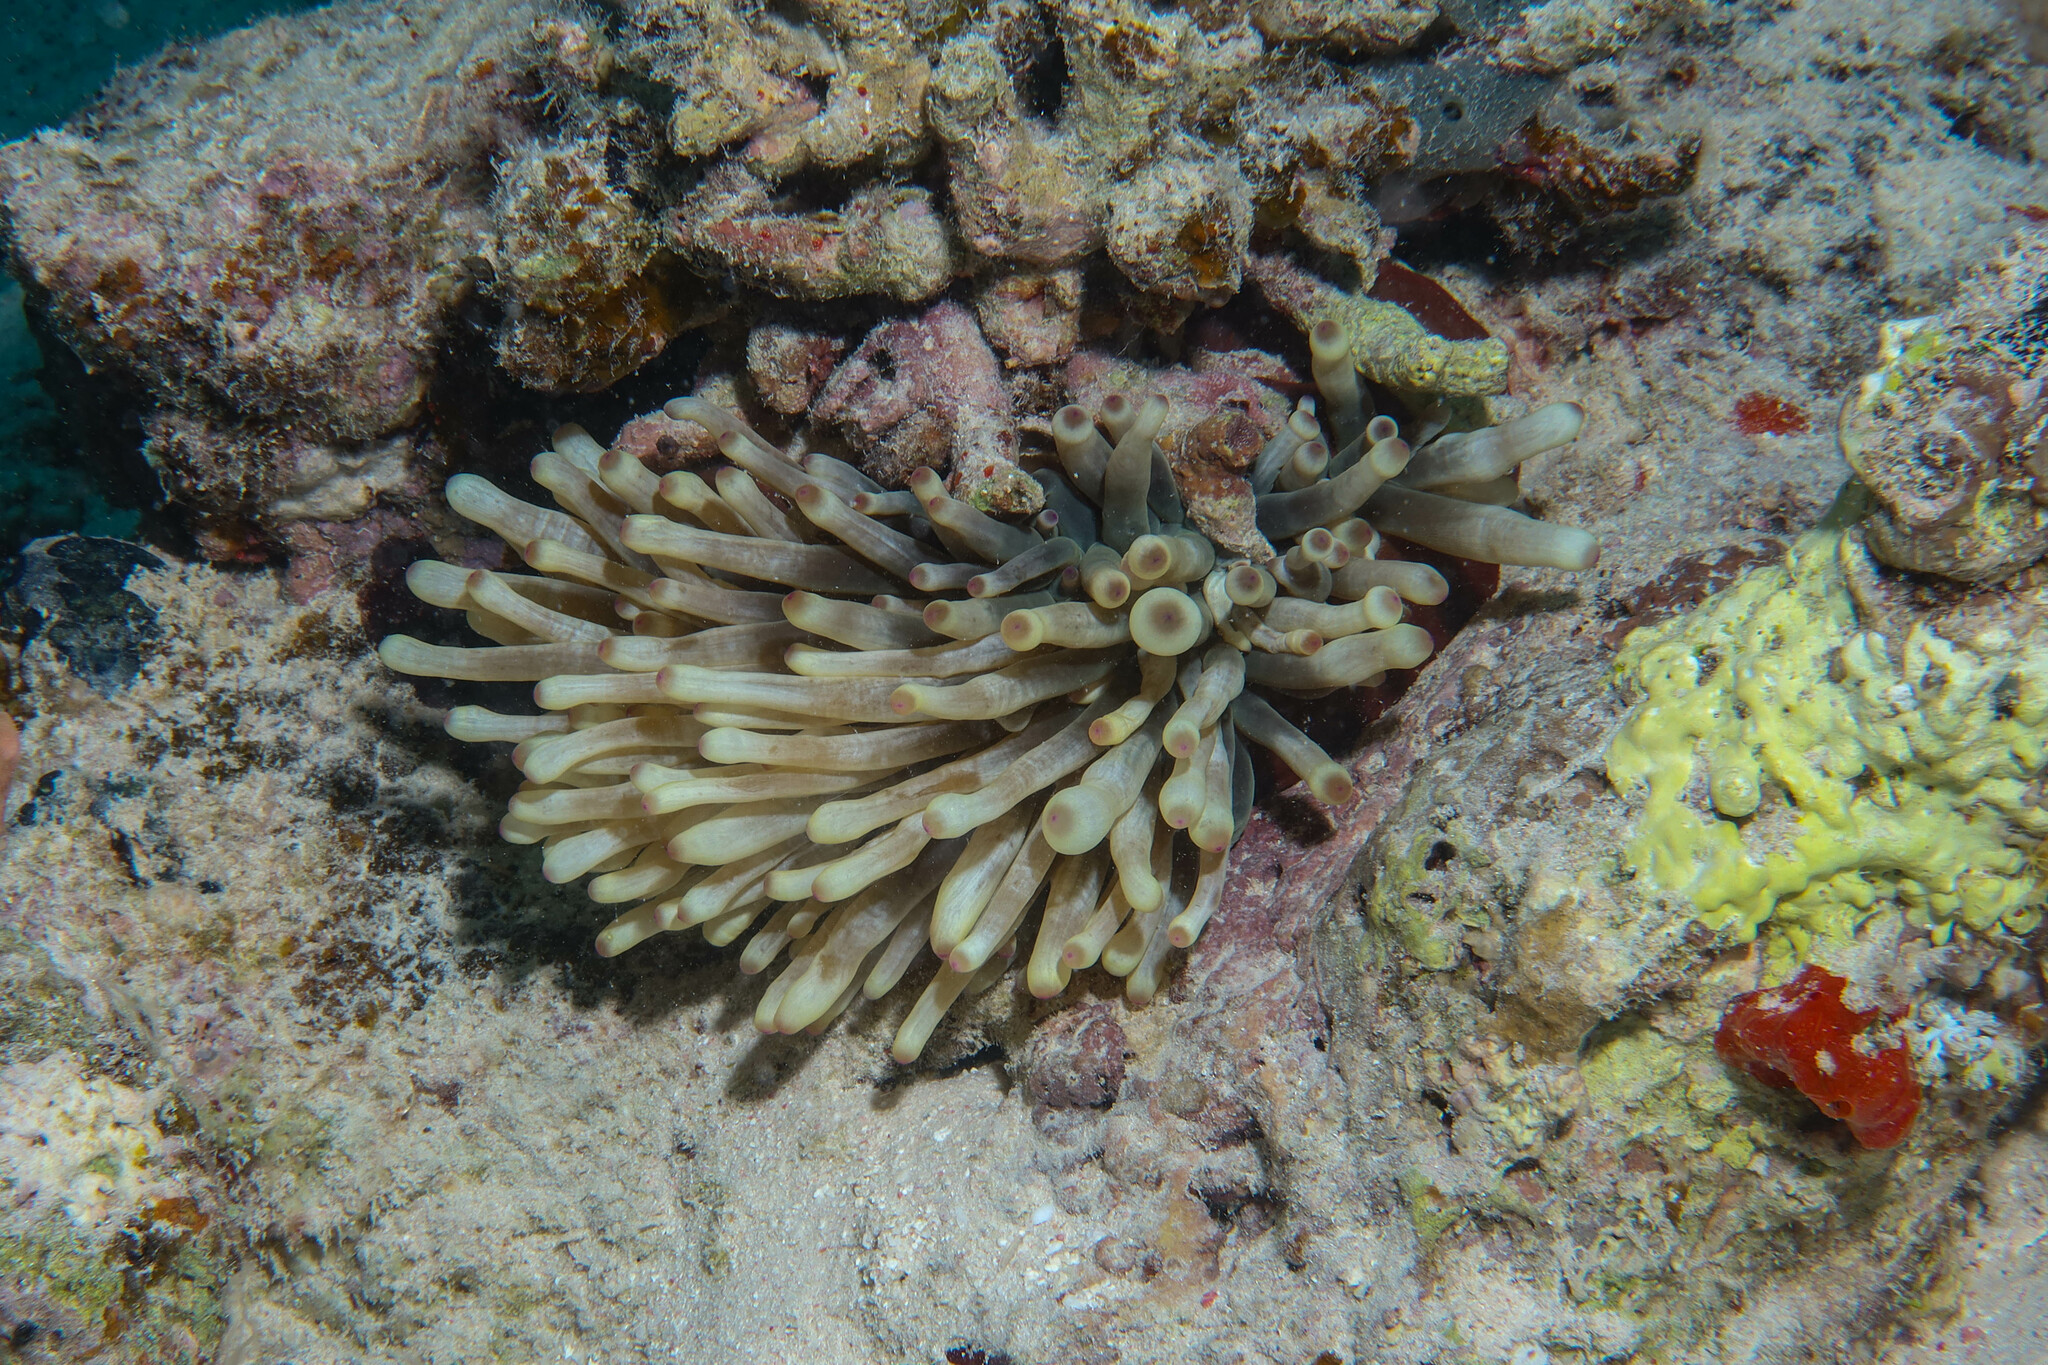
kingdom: Animalia
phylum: Cnidaria
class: Anthozoa
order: Actiniaria
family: Actiniidae
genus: Entacmaea
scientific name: Entacmaea quadricolor
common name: Bulb tentacle sea anemone
